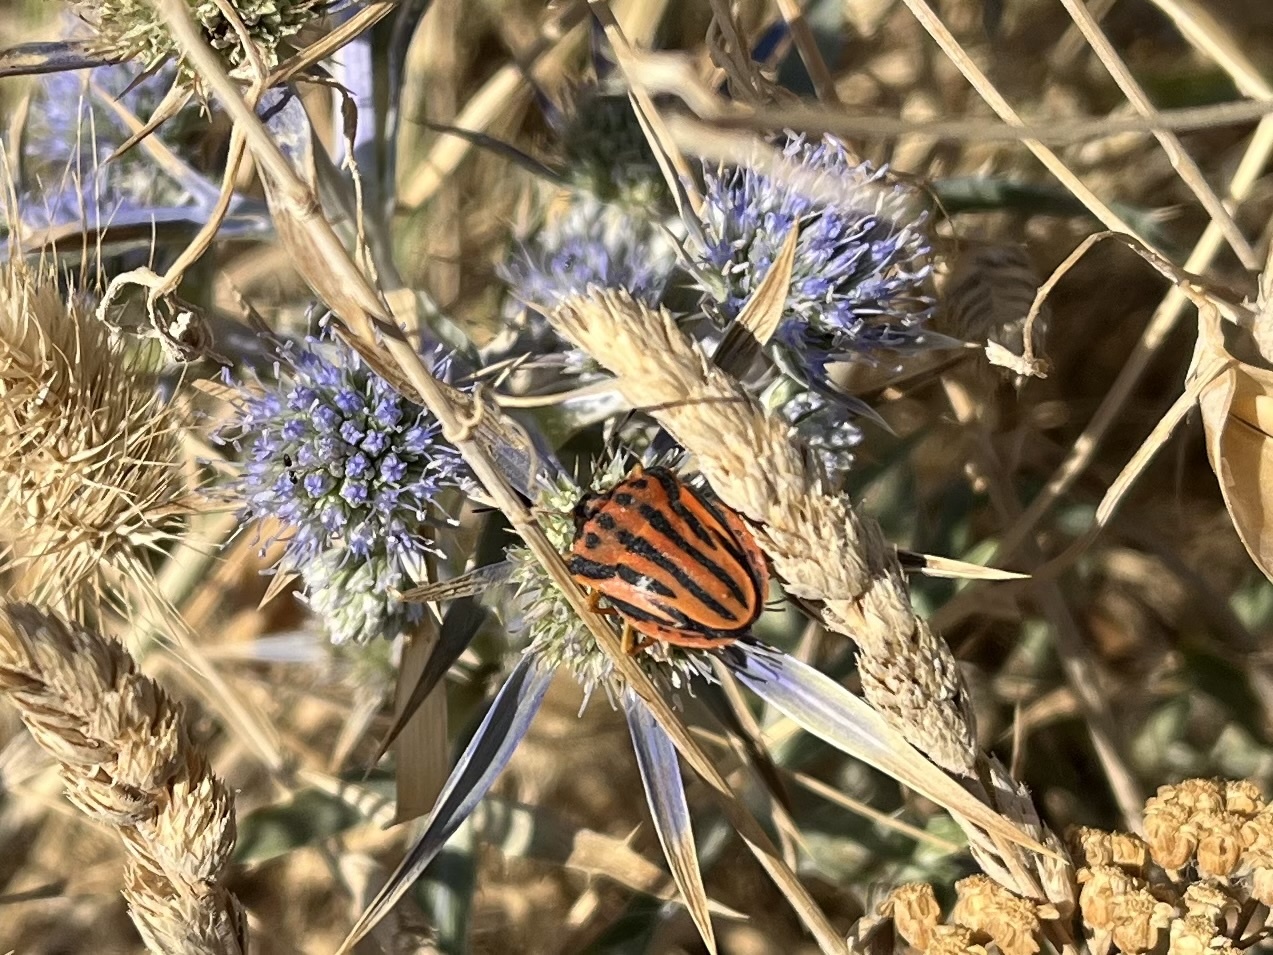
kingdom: Animalia
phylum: Arthropoda
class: Insecta
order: Hemiptera
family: Pentatomidae
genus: Graphosoma
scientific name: Graphosoma semipunctatum
